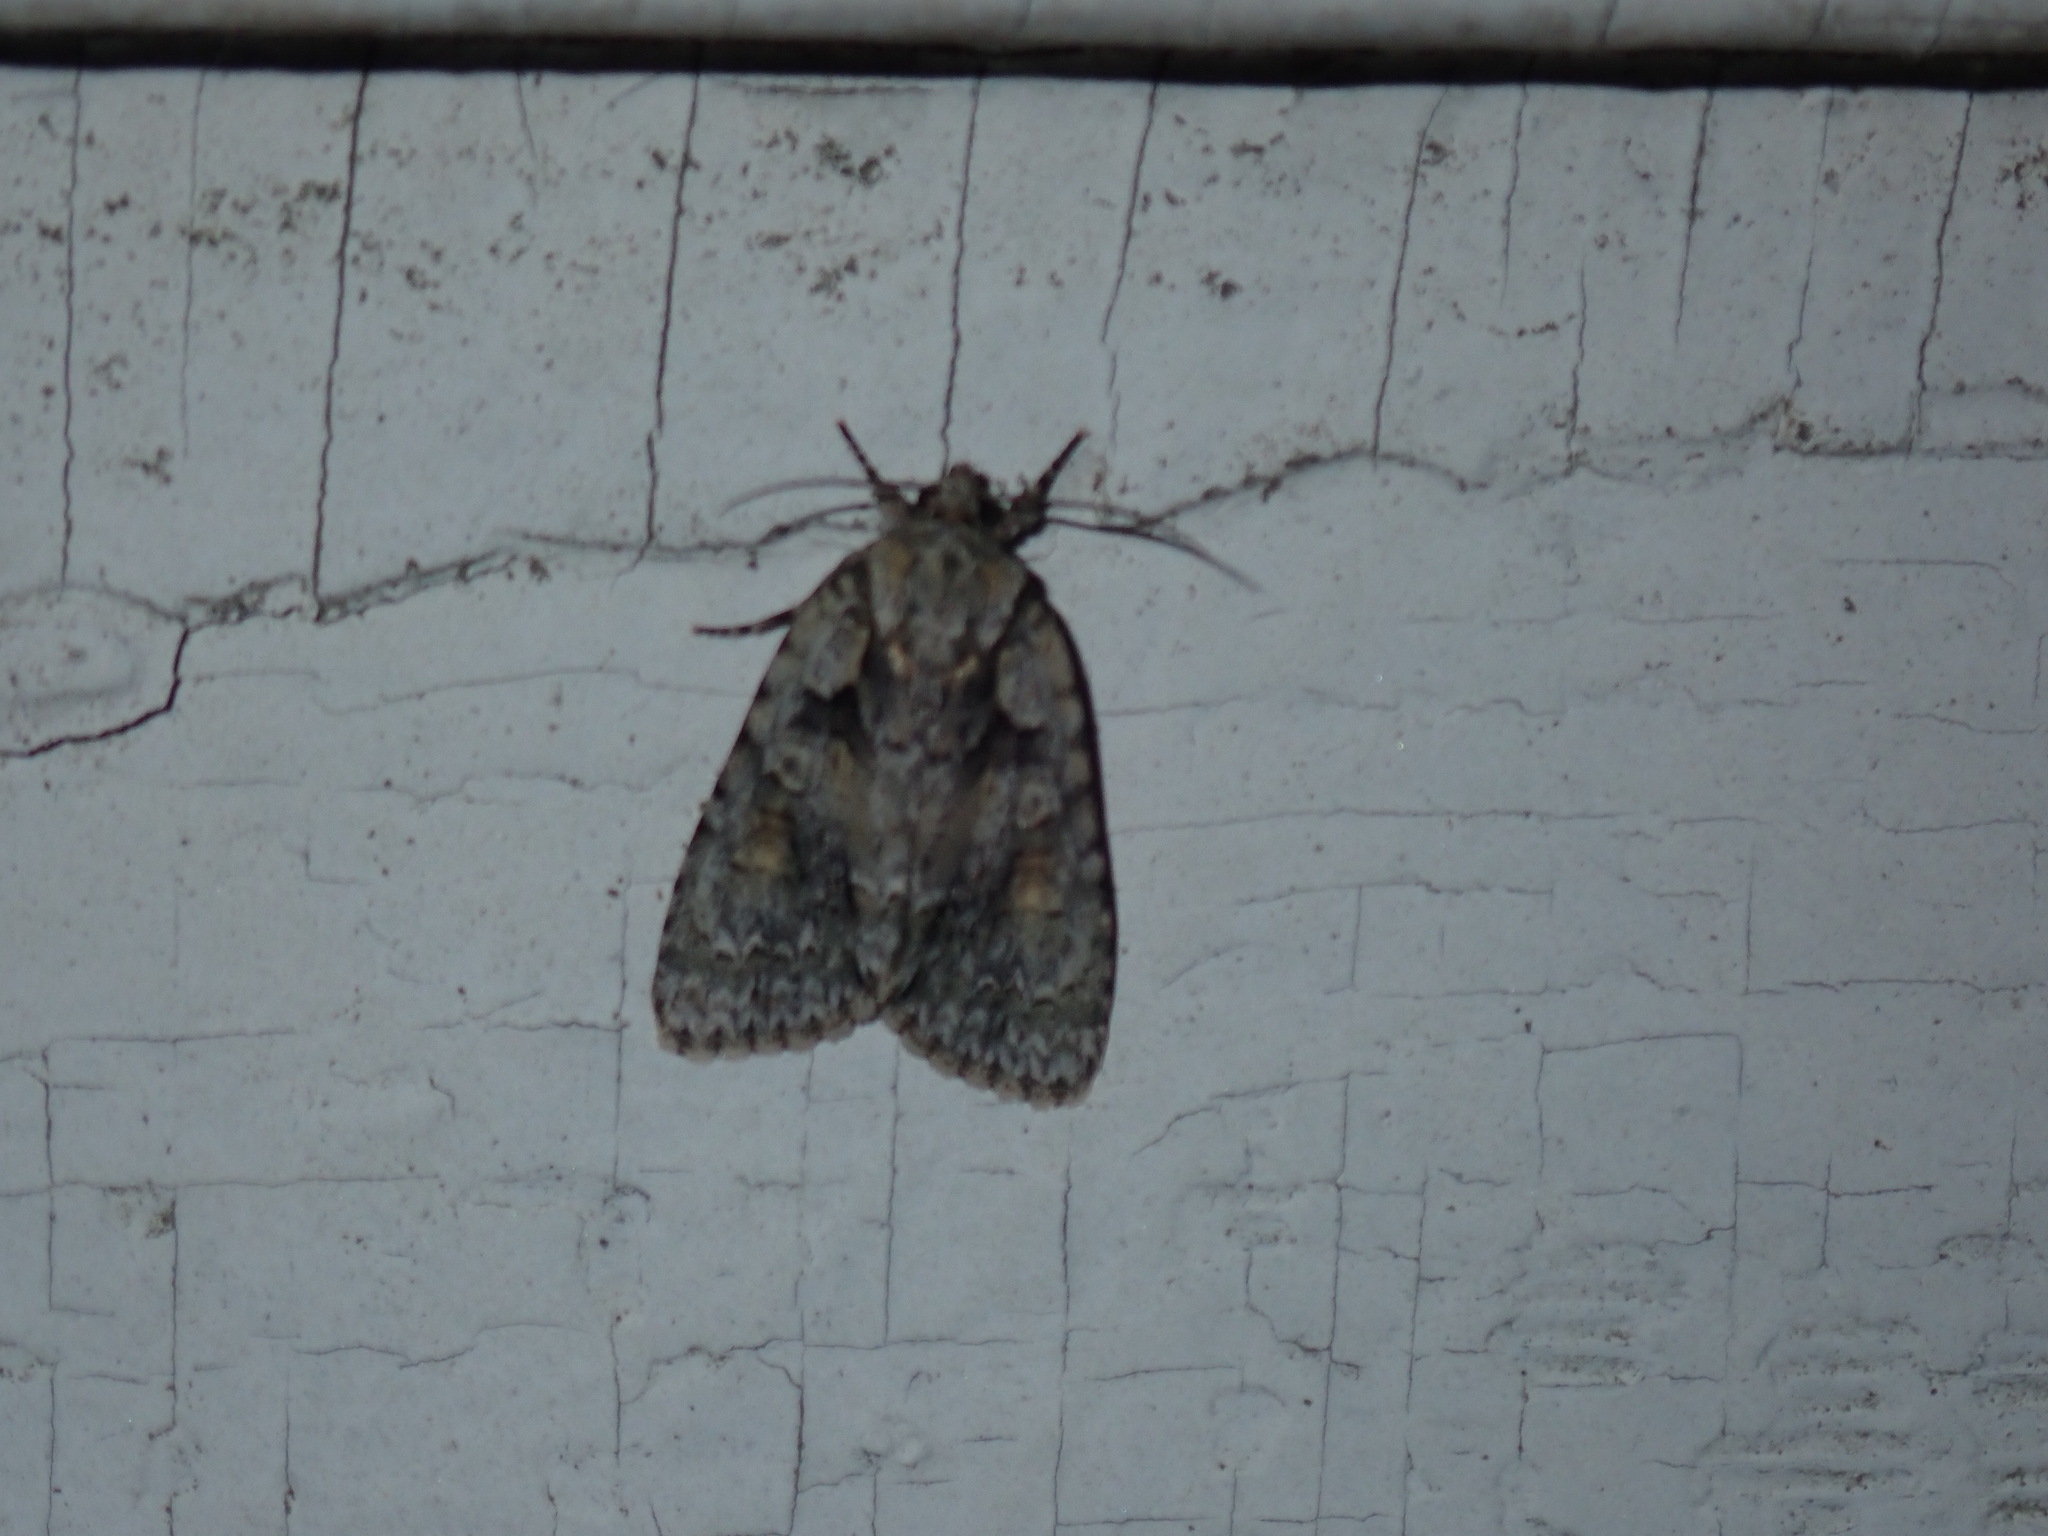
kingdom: Animalia
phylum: Arthropoda
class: Insecta
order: Lepidoptera
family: Noctuidae
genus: Acronicta
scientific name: Acronicta ovata
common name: Epauleted oak dagger
